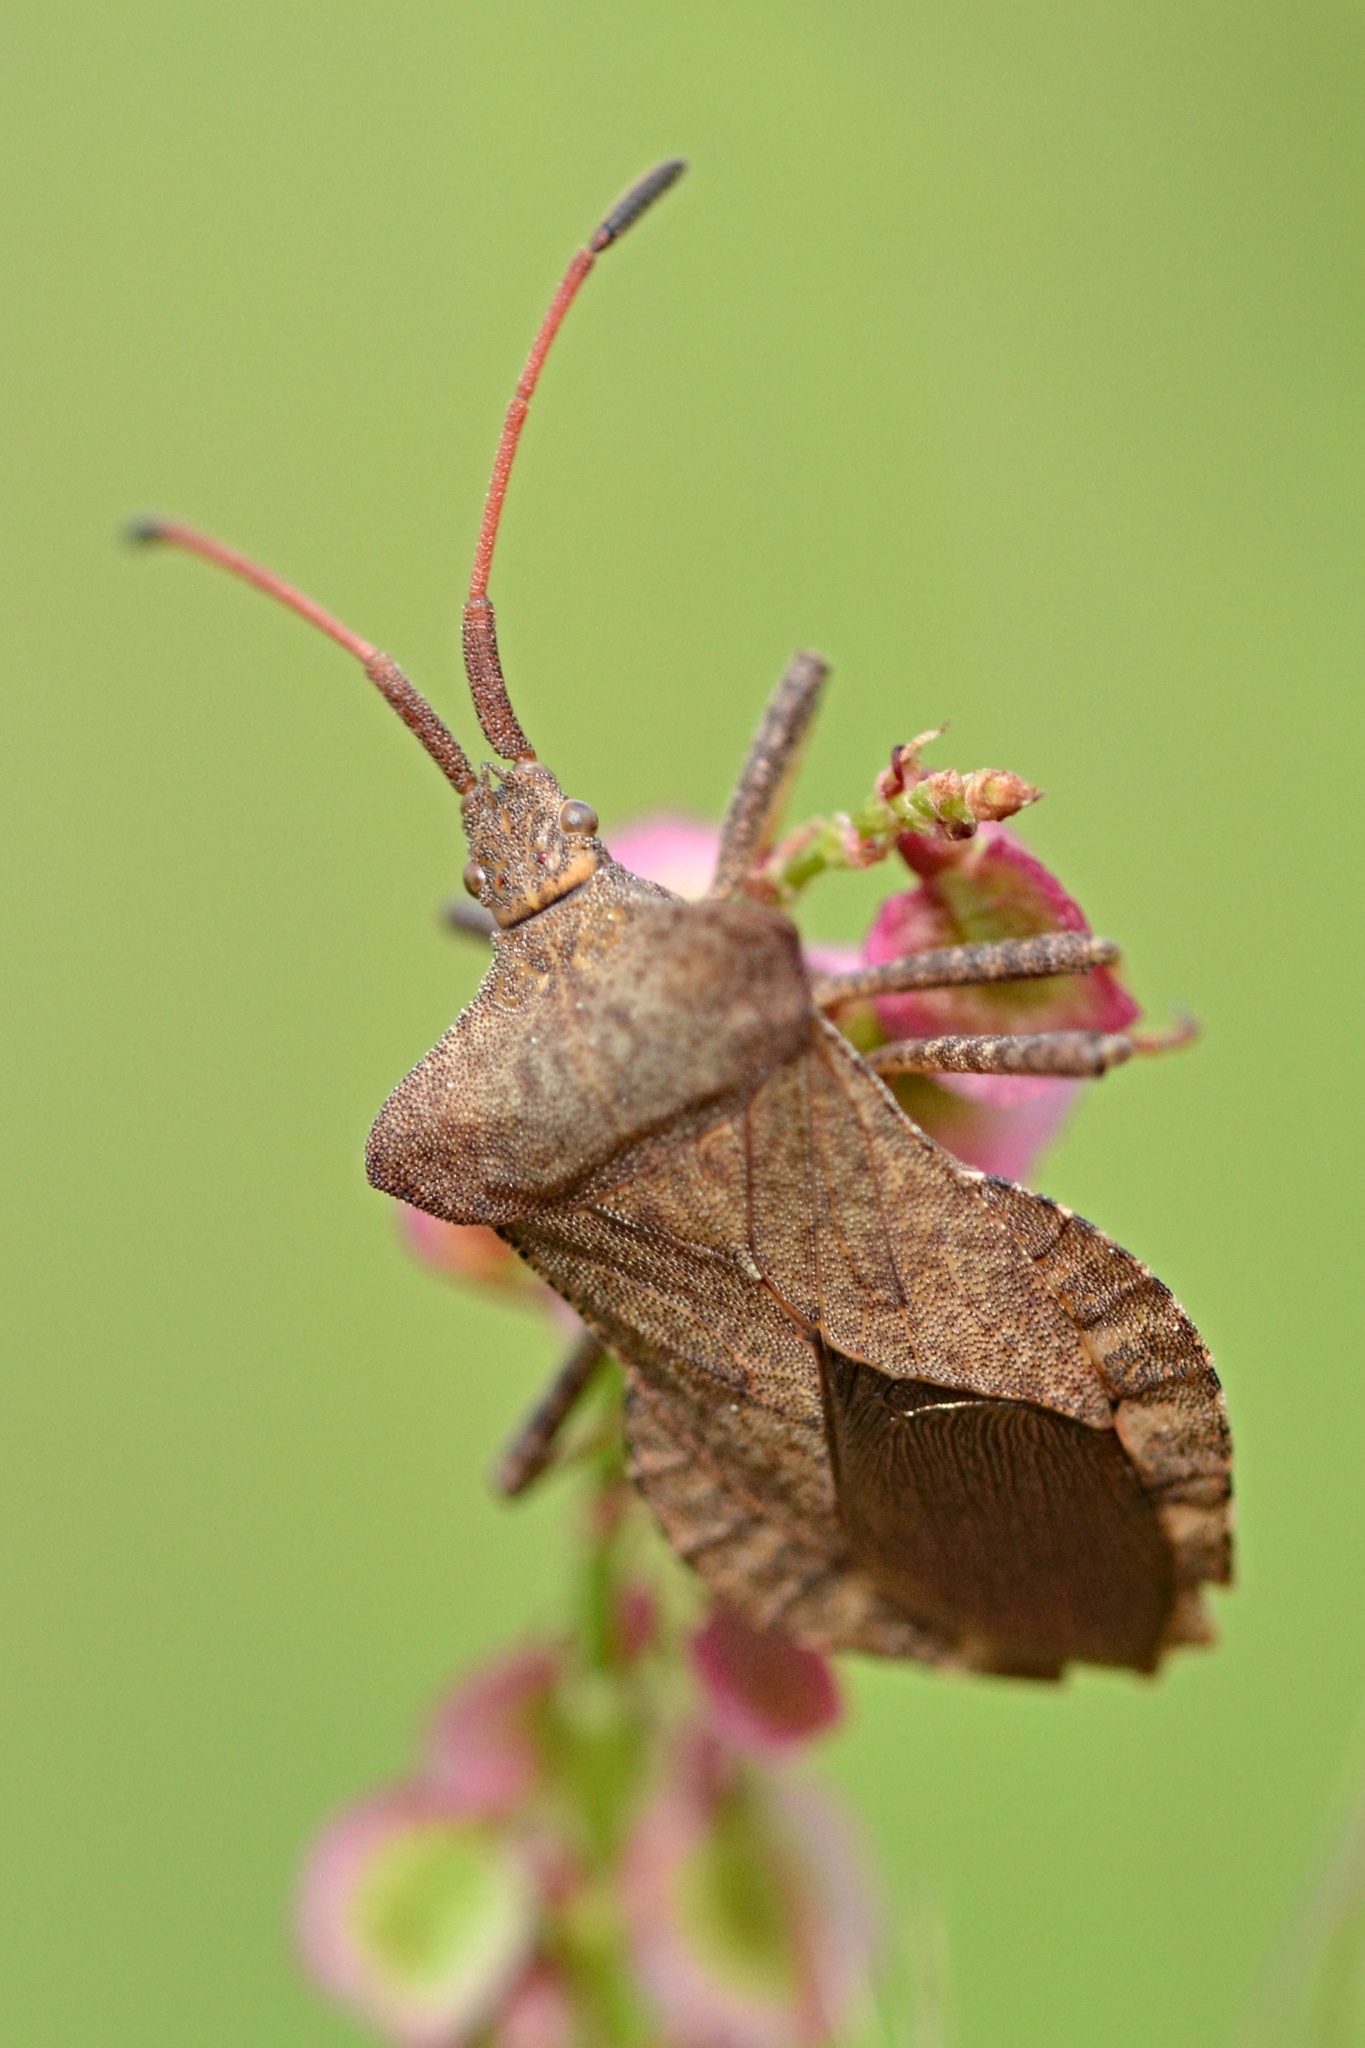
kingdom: Animalia
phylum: Arthropoda
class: Insecta
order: Hemiptera
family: Coreidae
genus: Coreus
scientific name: Coreus marginatus
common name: Dock bug
